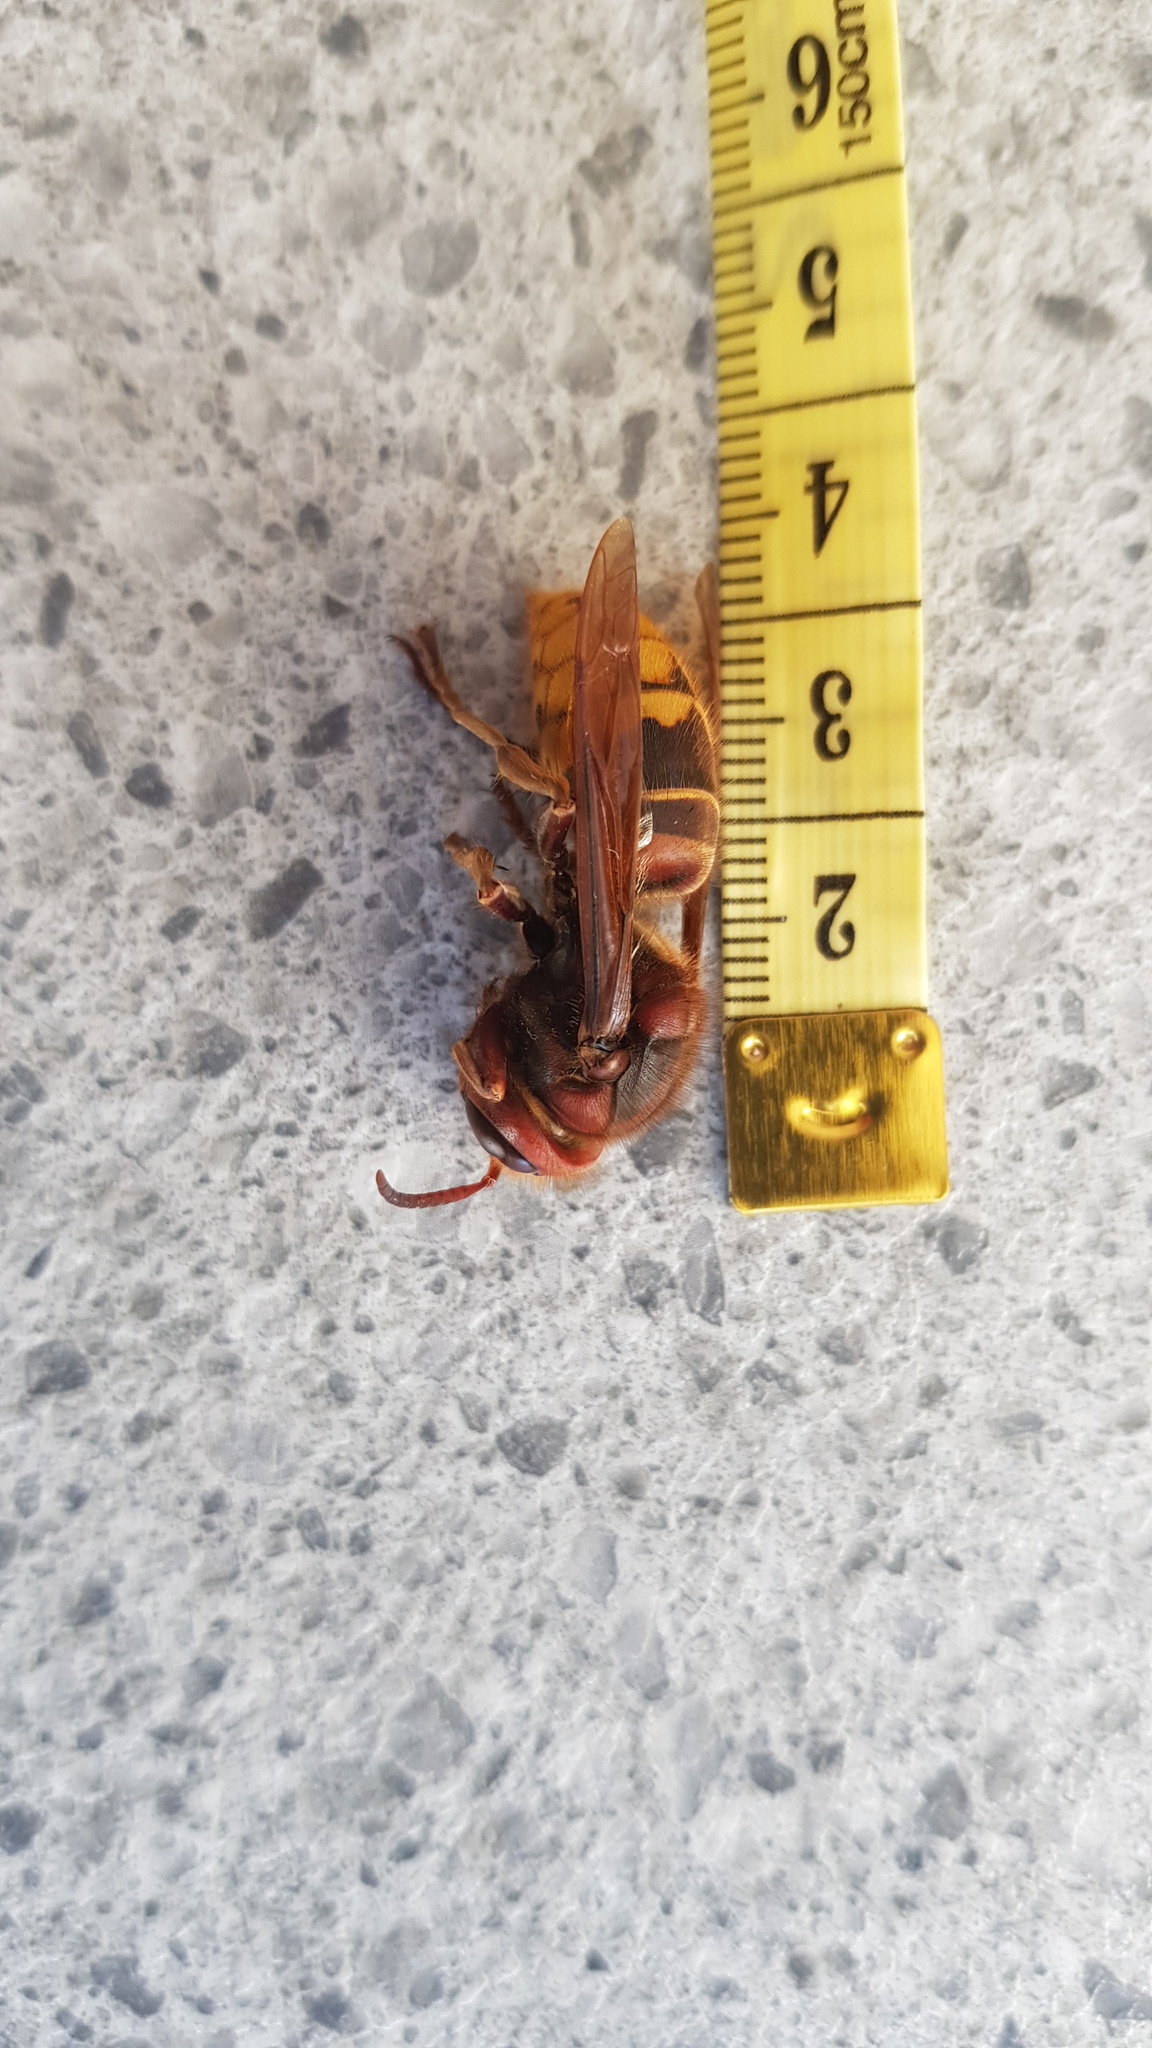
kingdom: Animalia
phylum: Arthropoda
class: Insecta
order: Hymenoptera
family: Vespidae
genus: Vespa
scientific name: Vespa crabro
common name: Hornet
